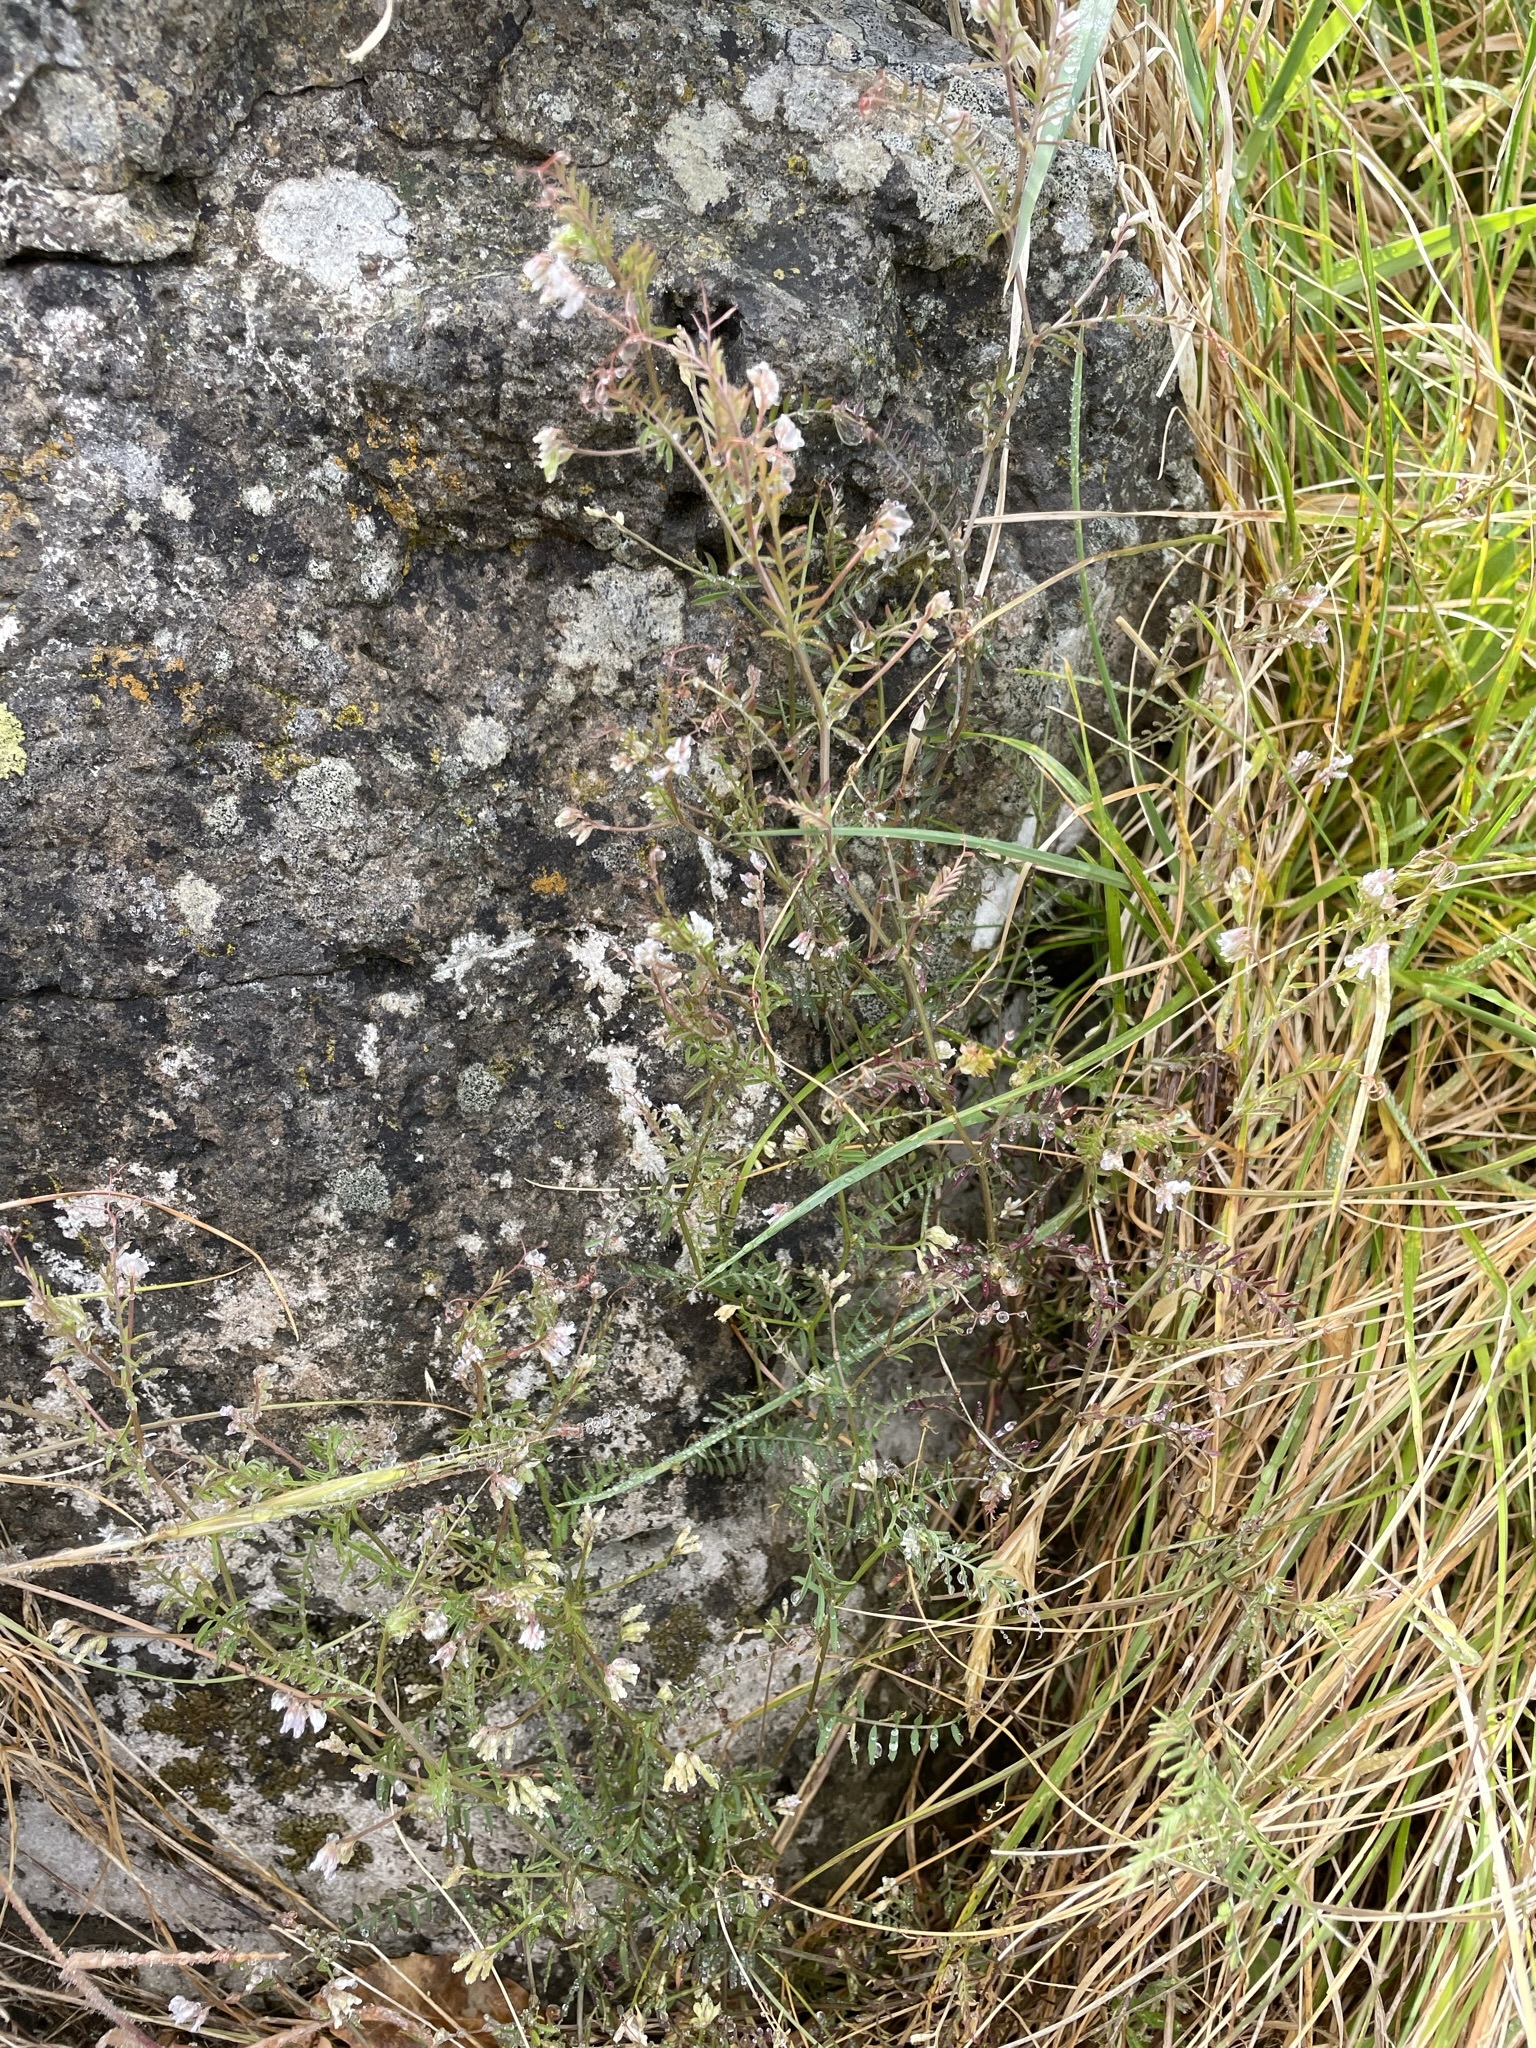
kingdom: Plantae
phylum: Tracheophyta
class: Magnoliopsida
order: Fabales
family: Fabaceae
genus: Vicia
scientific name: Vicia hirsuta
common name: Tiny vetch
